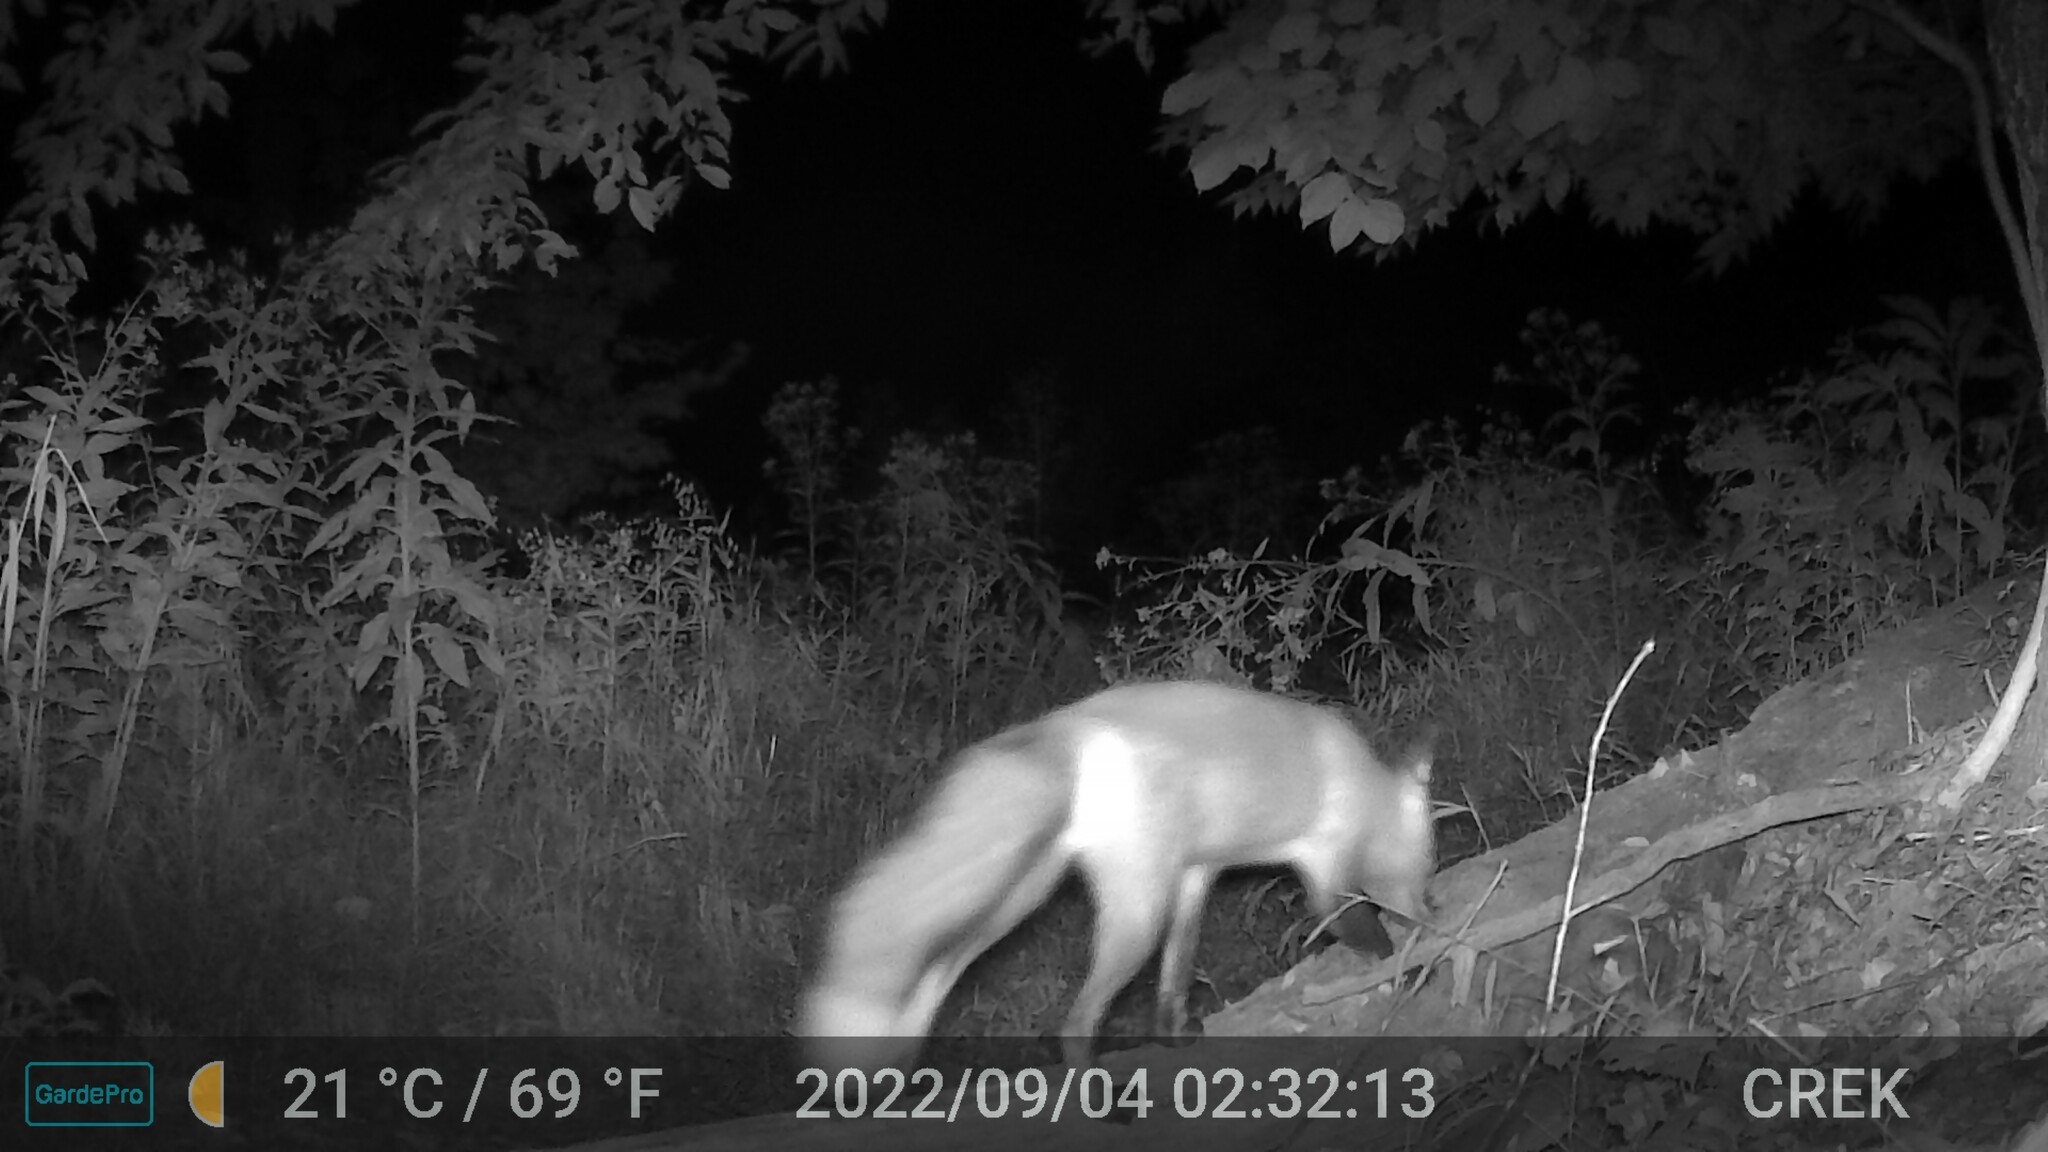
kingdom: Animalia
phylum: Chordata
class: Mammalia
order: Carnivora
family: Canidae
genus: Vulpes
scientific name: Vulpes vulpes
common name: Red fox
